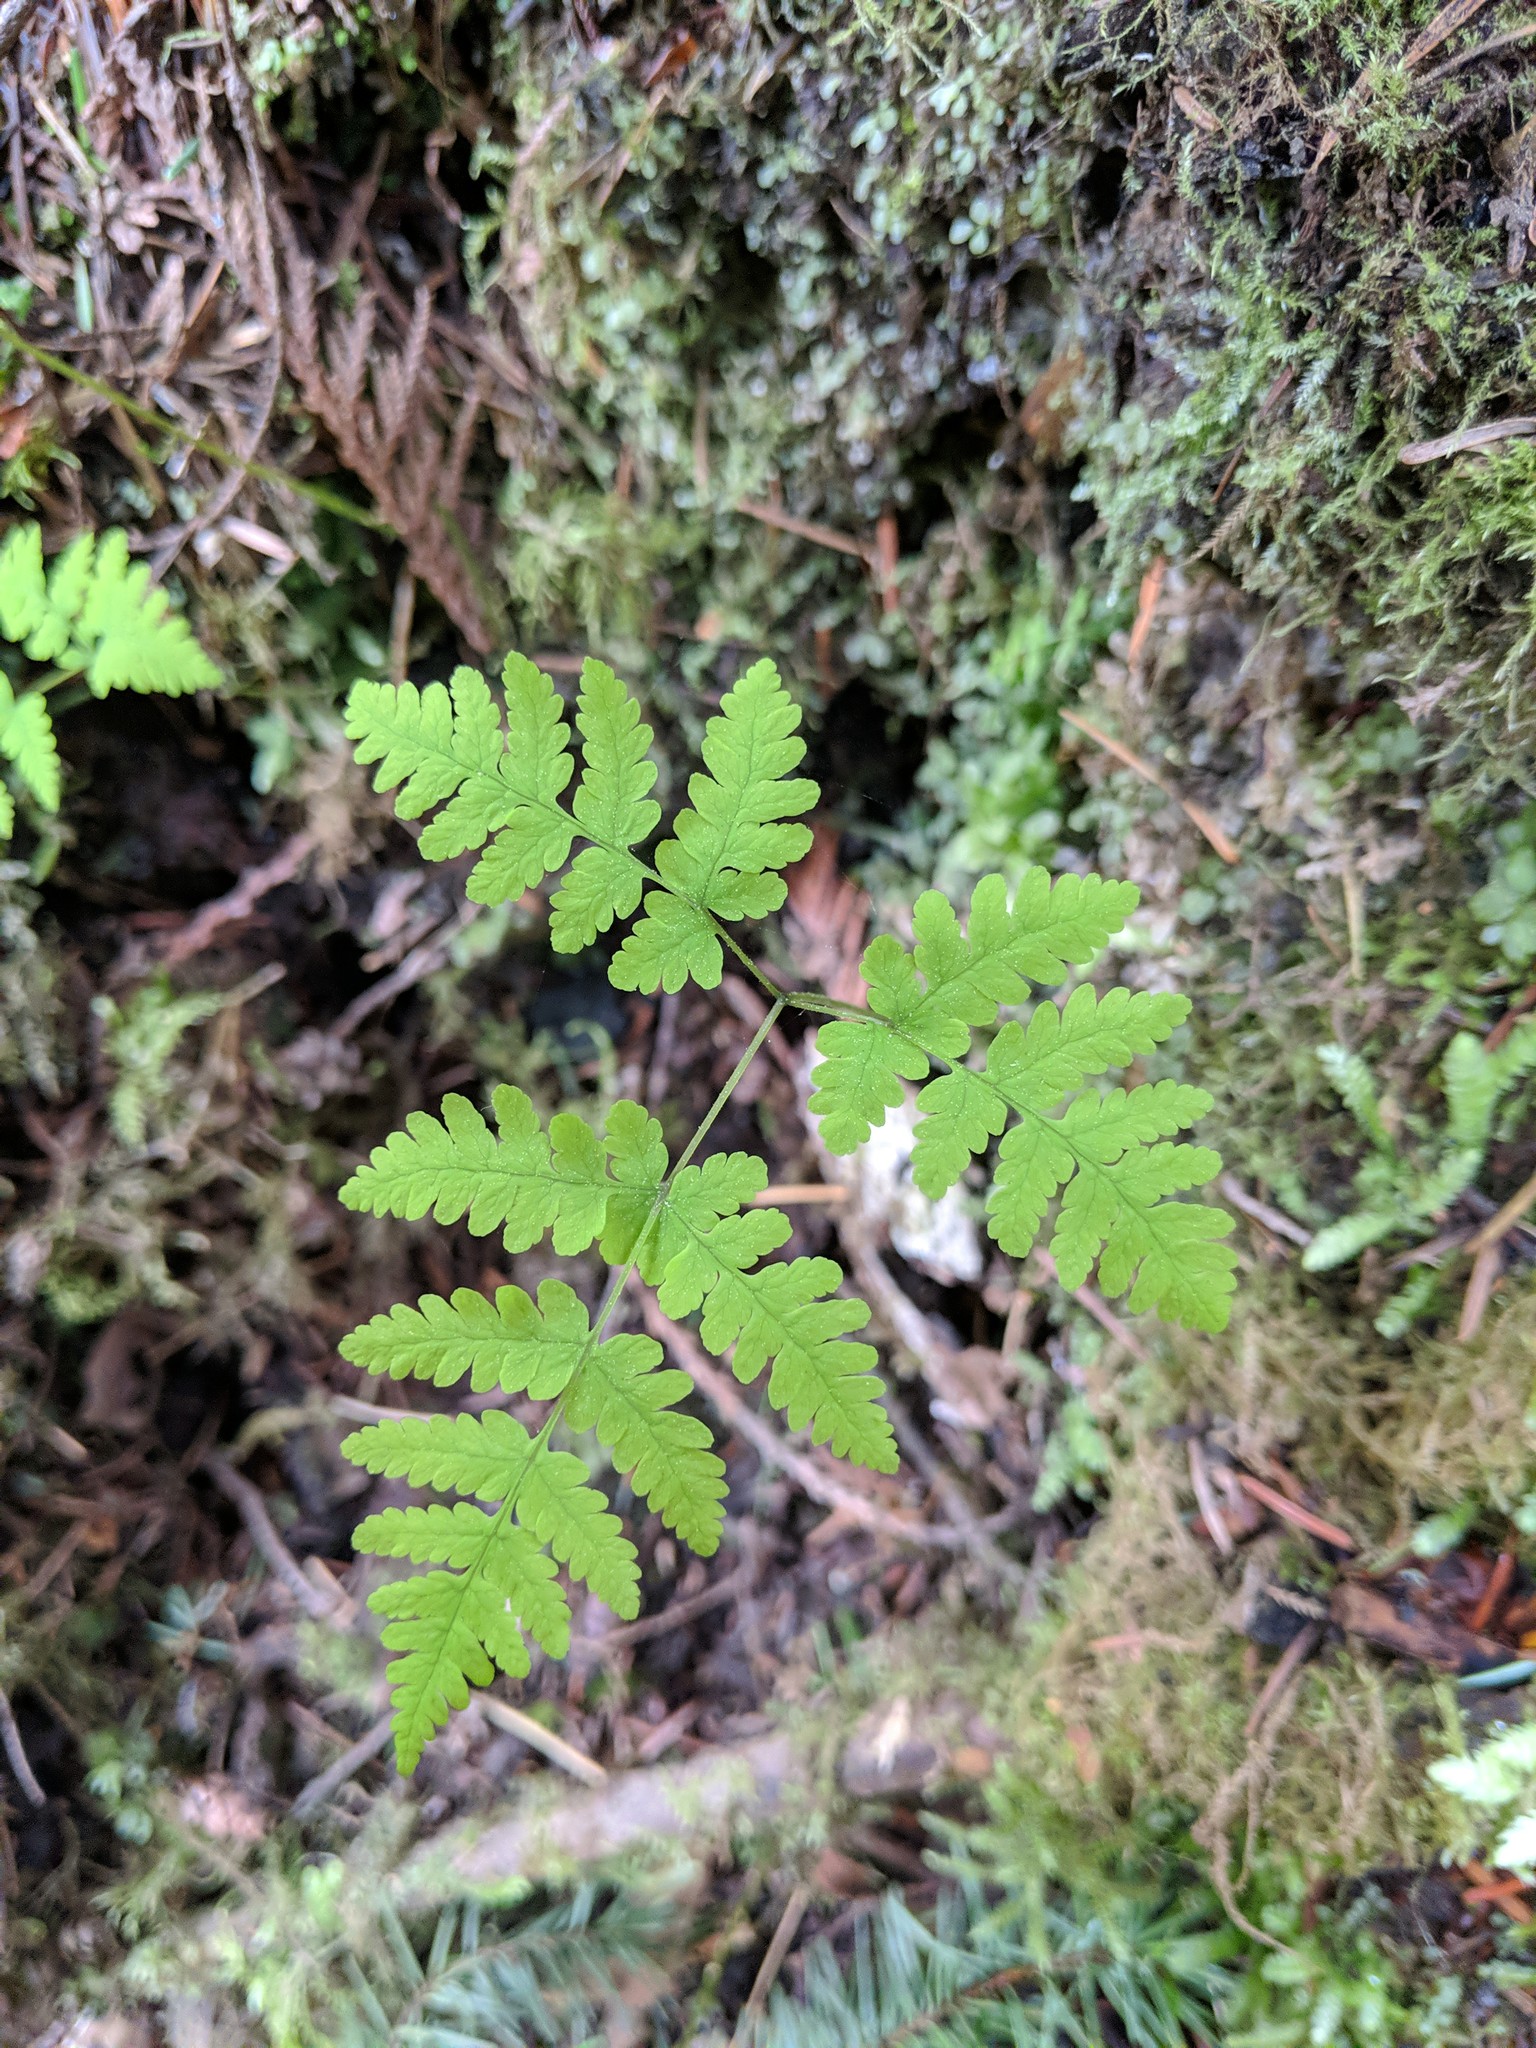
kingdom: Plantae
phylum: Tracheophyta
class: Polypodiopsida
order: Polypodiales
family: Cystopteridaceae
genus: Gymnocarpium
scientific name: Gymnocarpium disjunctum
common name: Western oak fern
